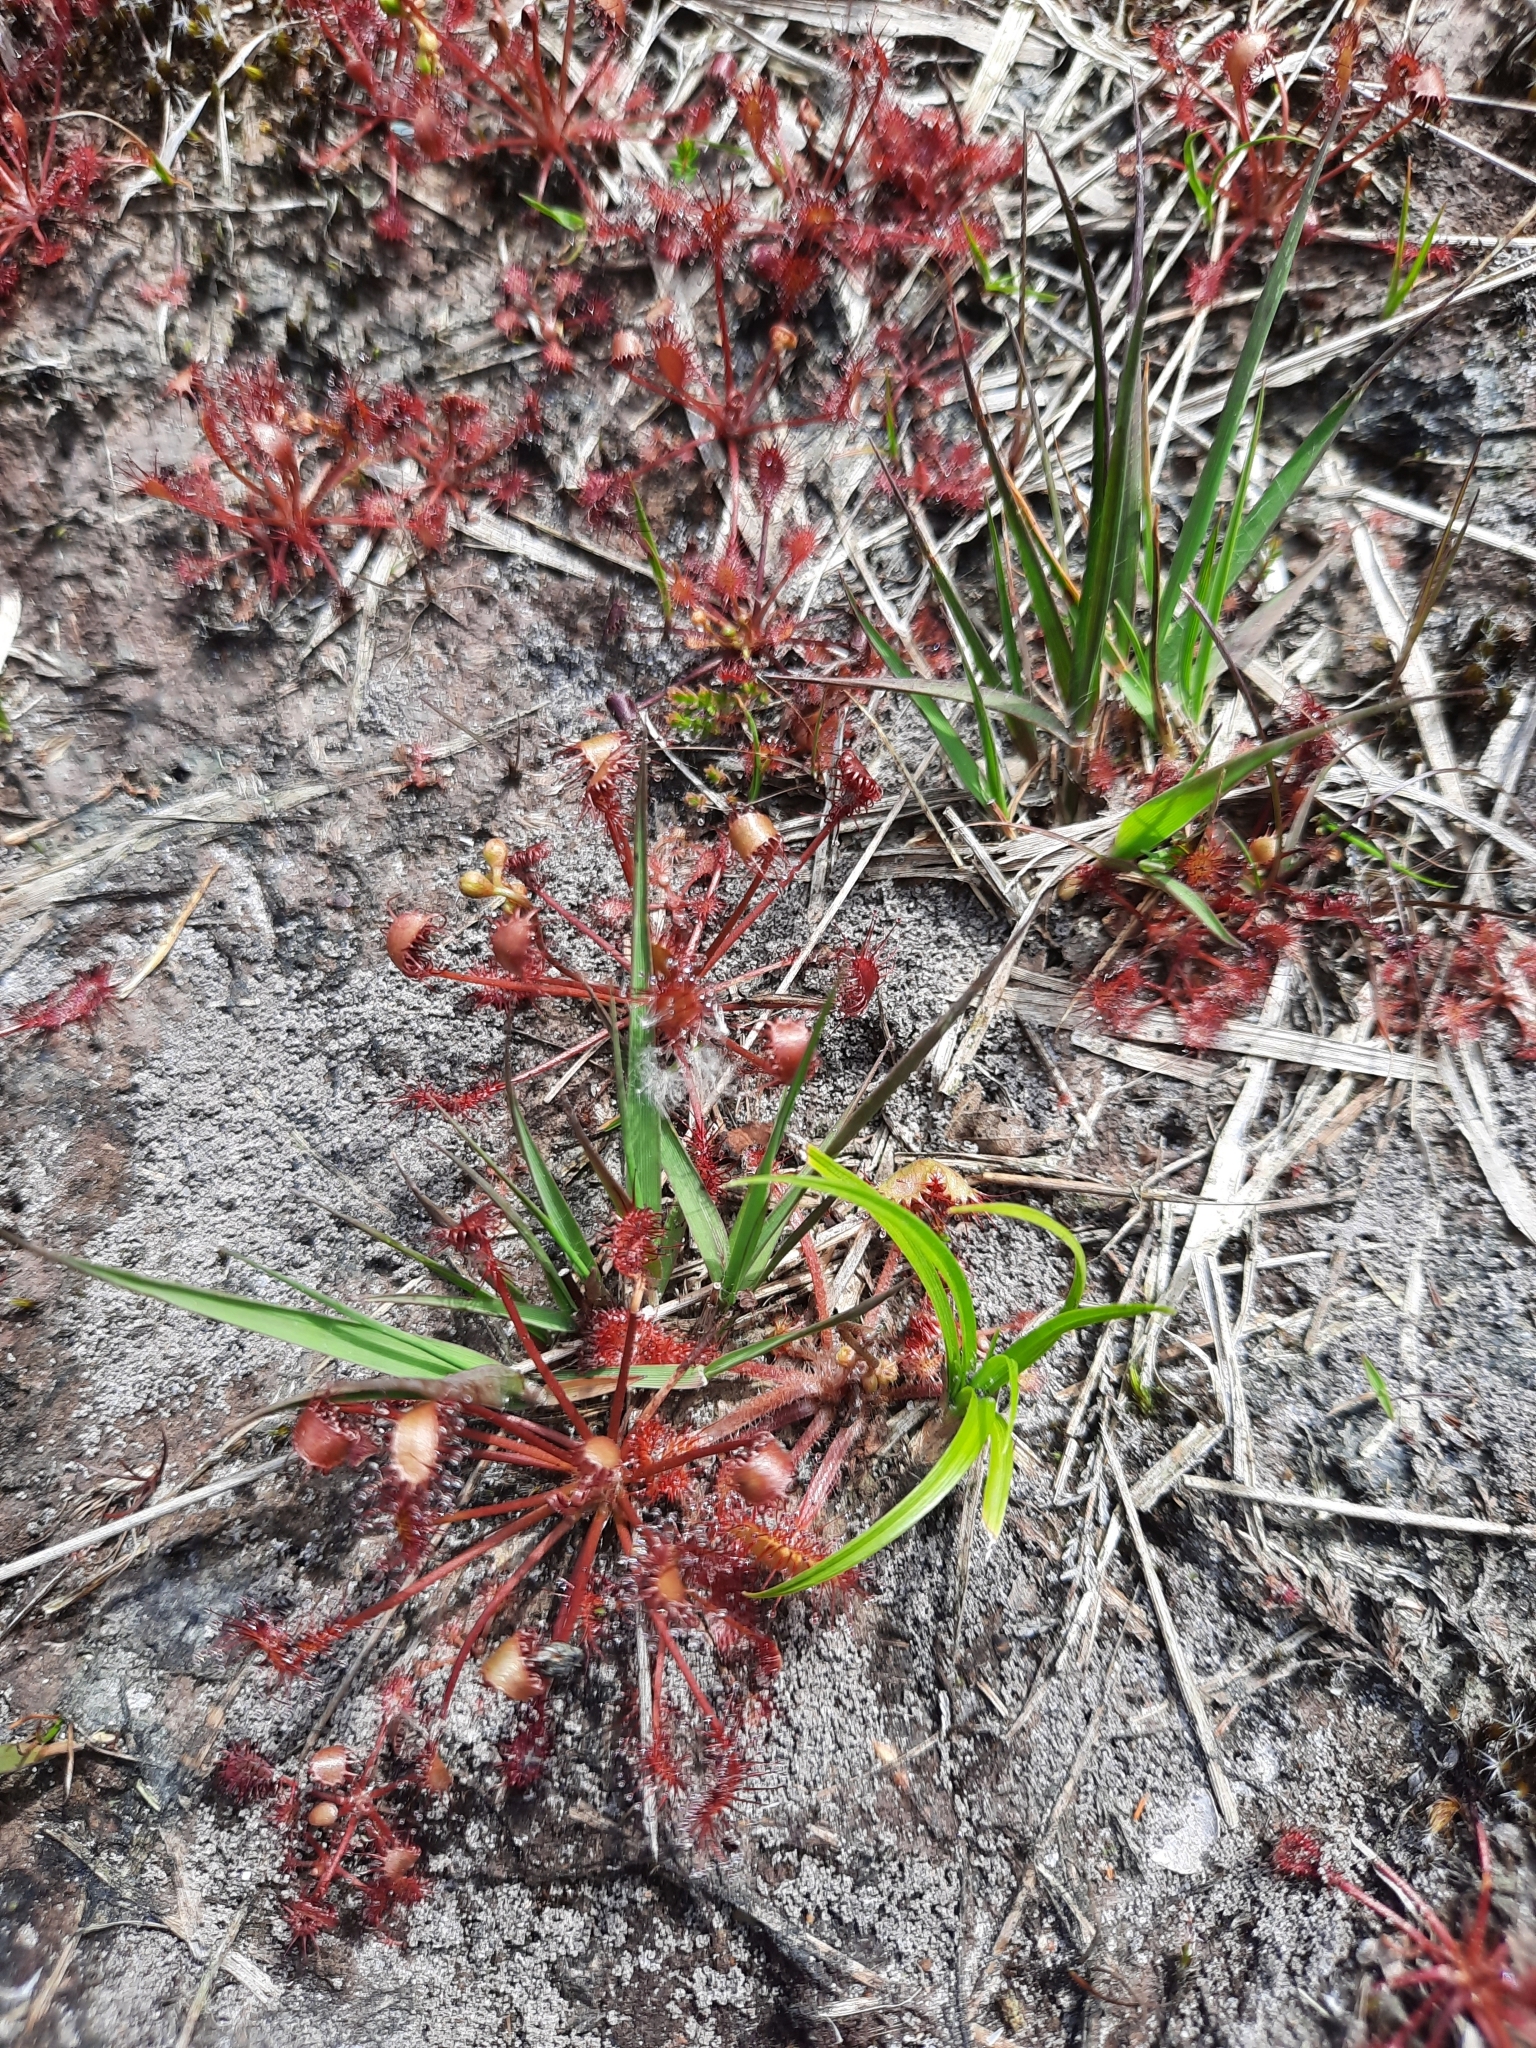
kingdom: Plantae
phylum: Tracheophyta
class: Magnoliopsida
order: Caryophyllales
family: Droseraceae
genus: Drosera
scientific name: Drosera intermedia
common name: Oblong-leaved sundew
